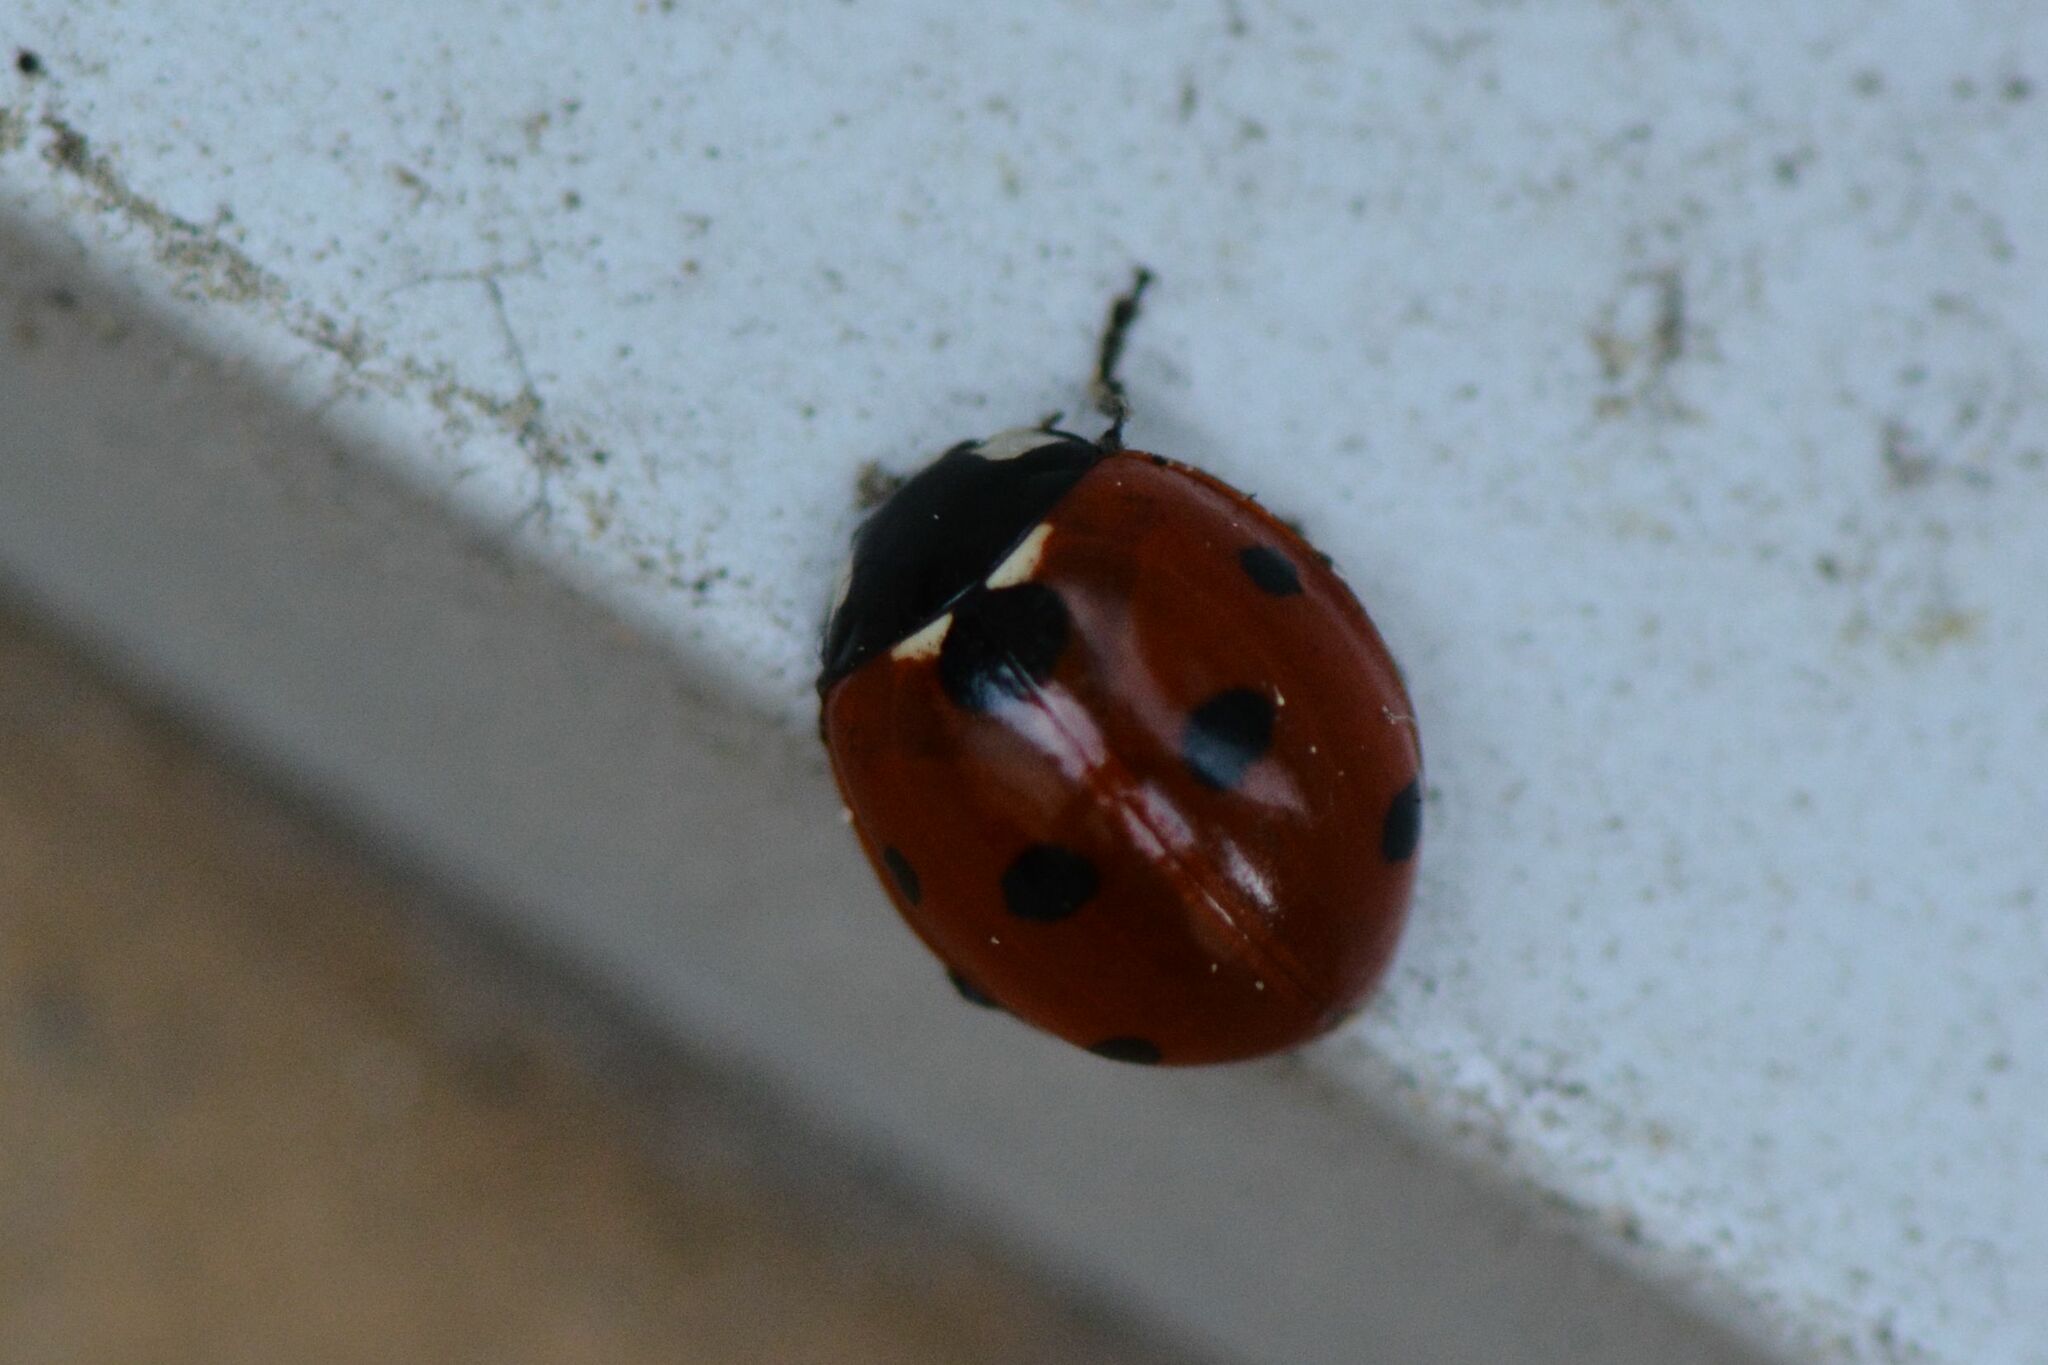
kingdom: Animalia
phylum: Arthropoda
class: Insecta
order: Coleoptera
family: Coccinellidae
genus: Coccinella
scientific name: Coccinella septempunctata
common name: Sevenspotted lady beetle
